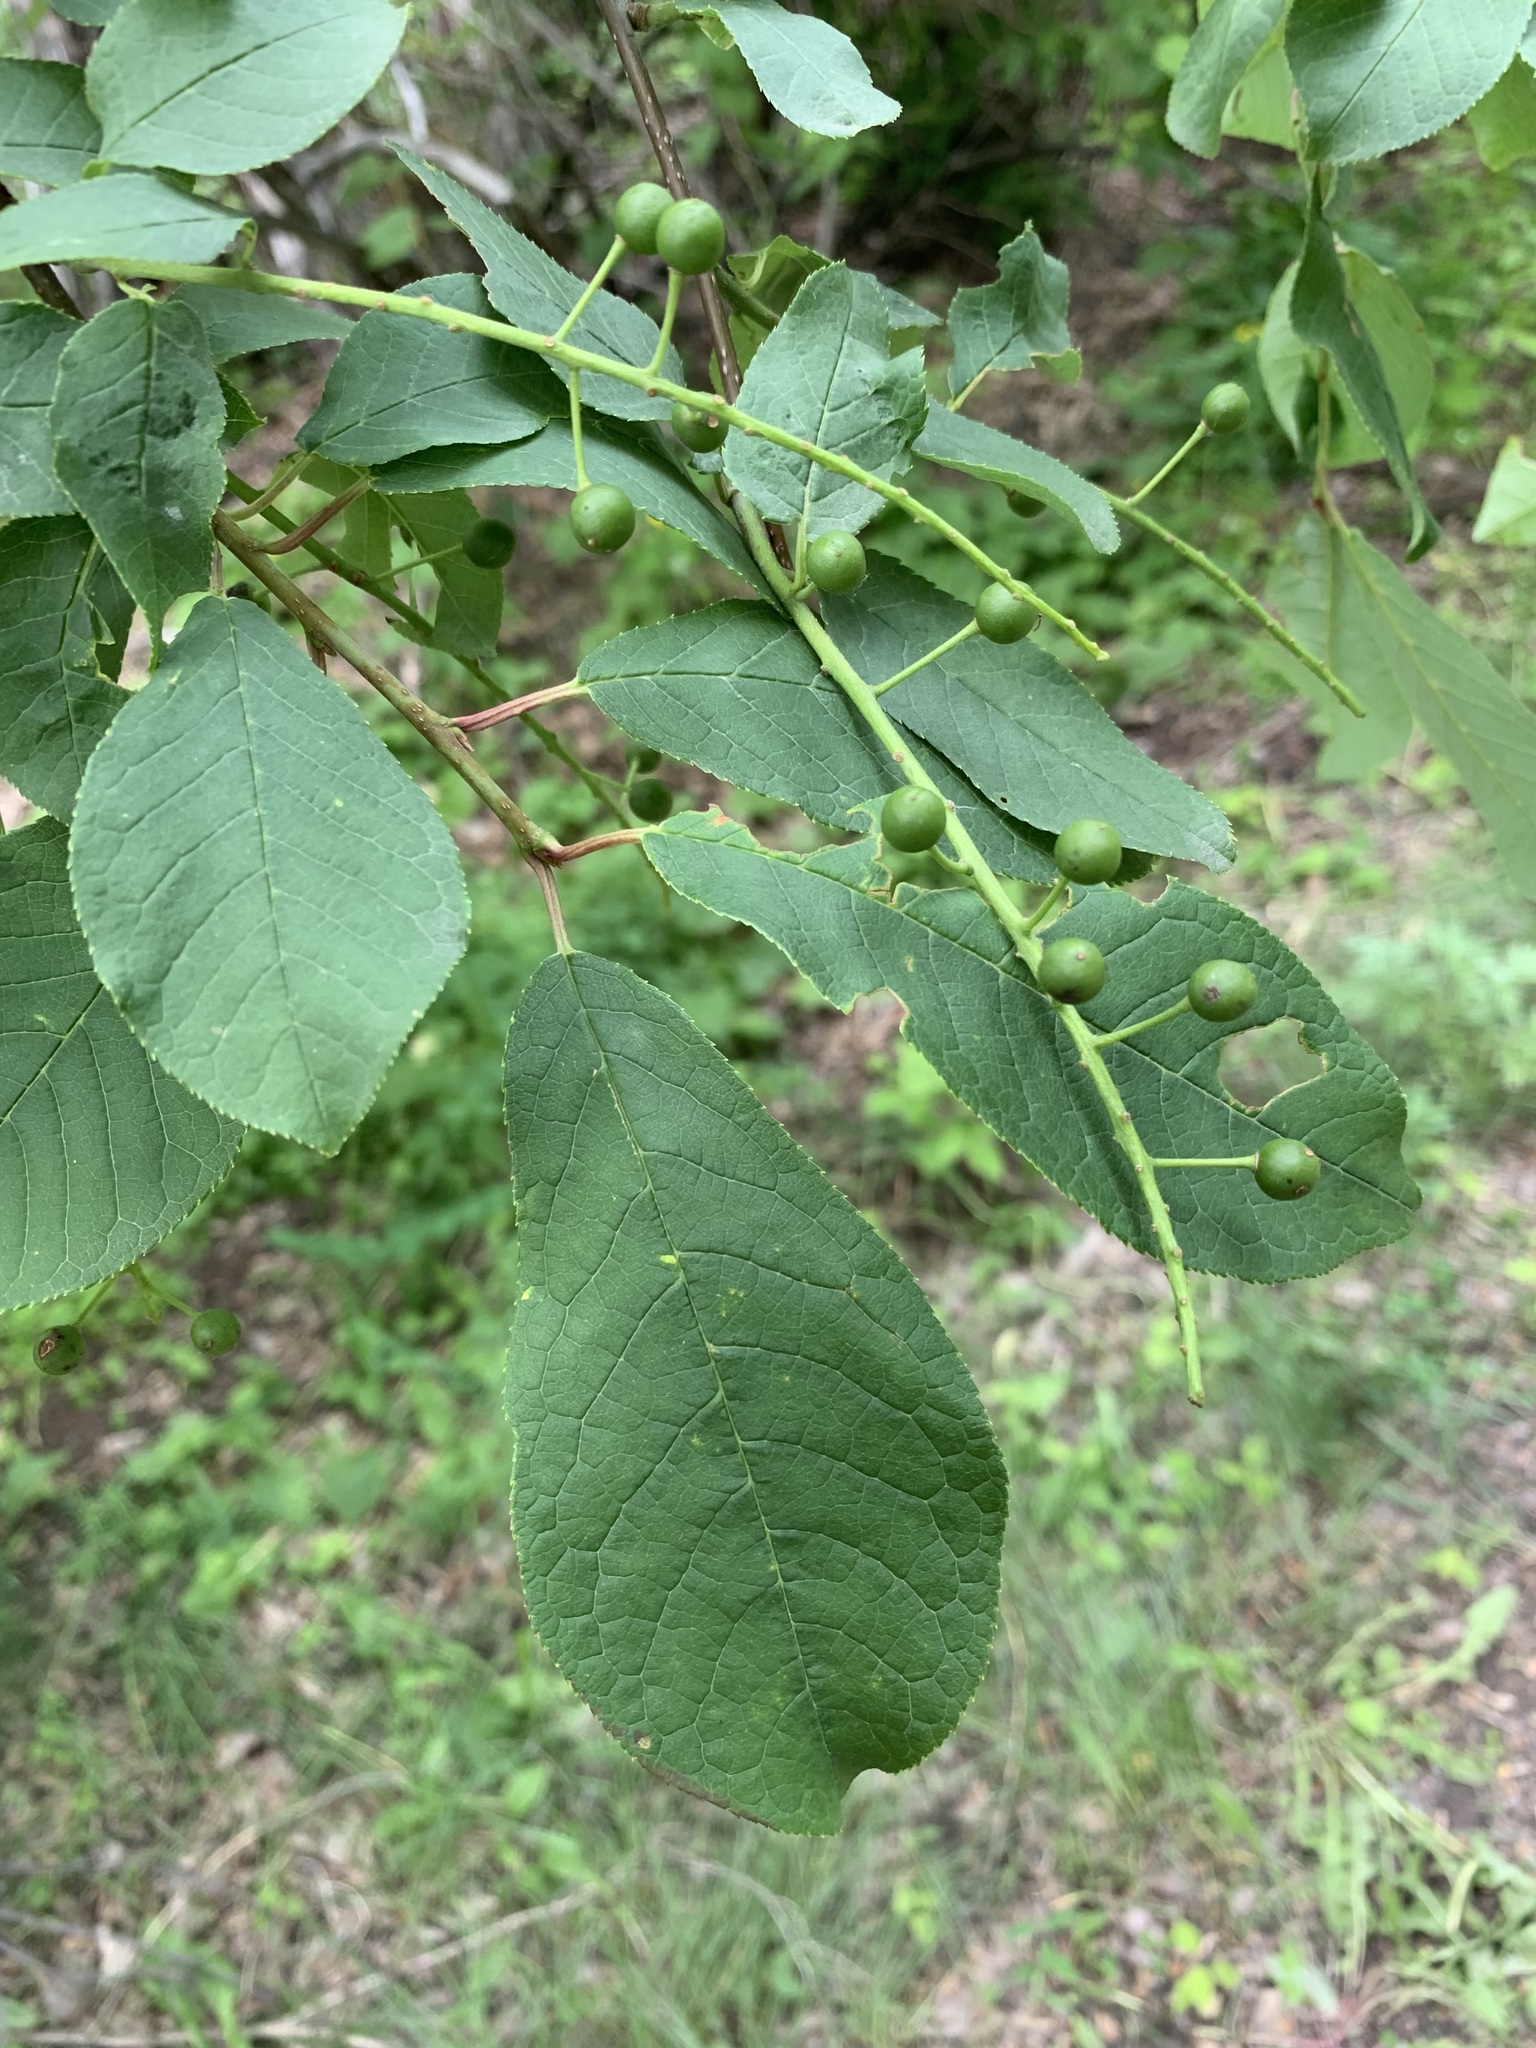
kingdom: Plantae
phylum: Tracheophyta
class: Magnoliopsida
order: Rosales
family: Rosaceae
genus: Prunus
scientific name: Prunus padus
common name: Bird cherry
